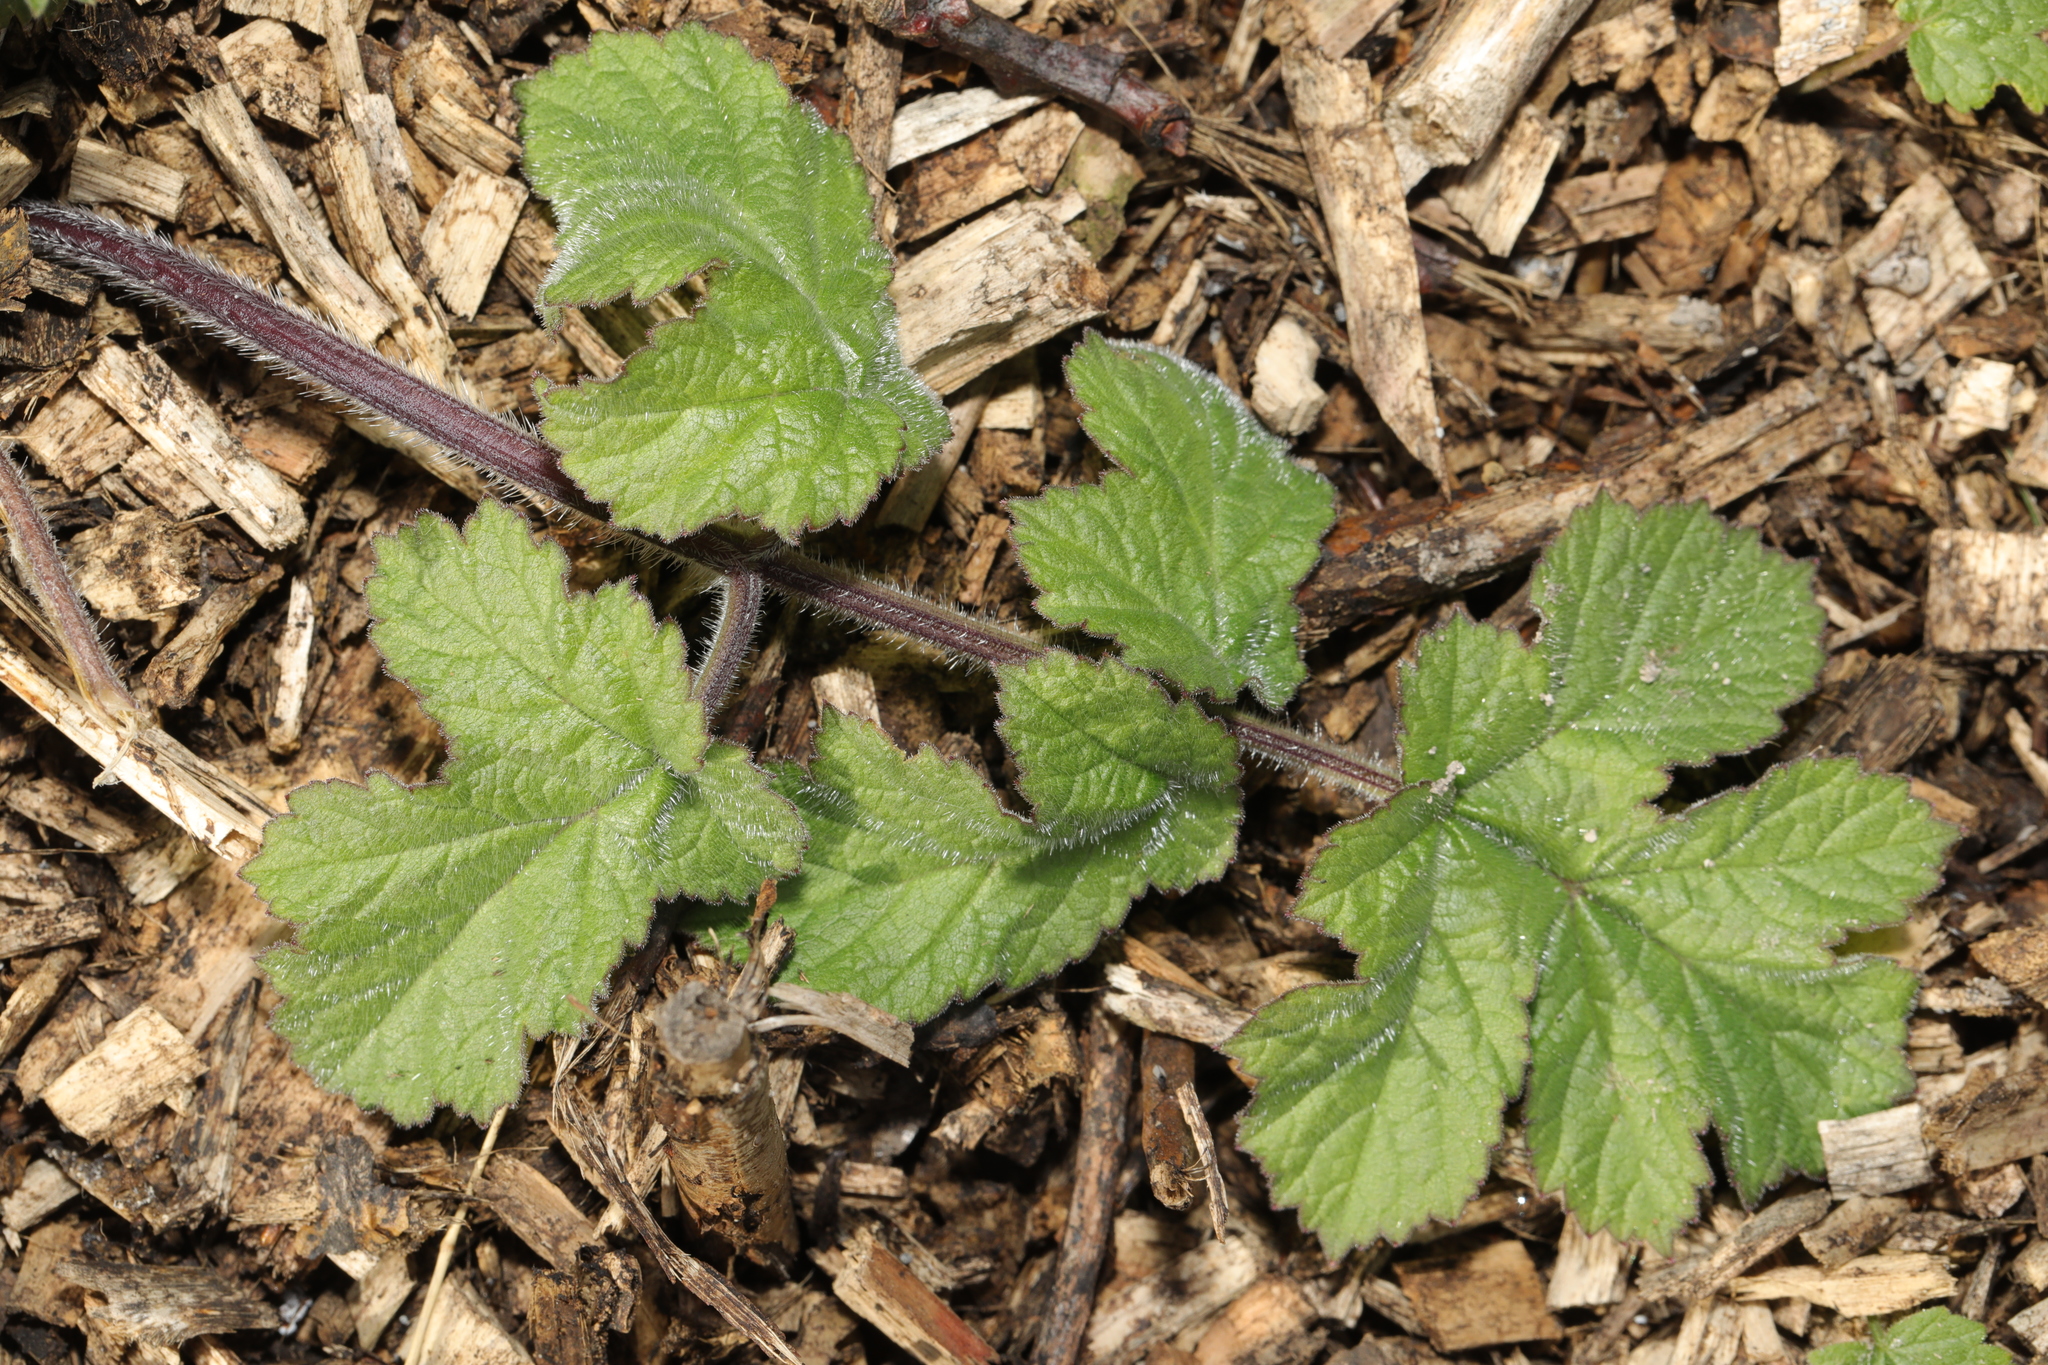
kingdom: Plantae
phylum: Tracheophyta
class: Magnoliopsida
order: Apiales
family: Apiaceae
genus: Heracleum
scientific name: Heracleum sphondylium
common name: Hogweed
